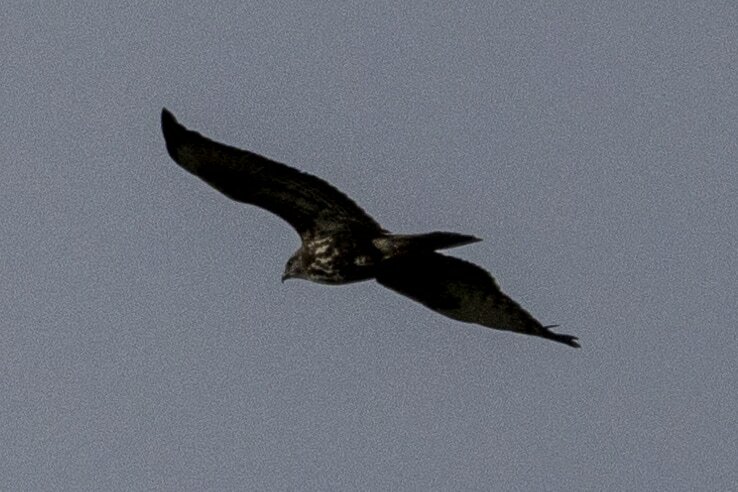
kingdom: Animalia
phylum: Chordata
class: Aves
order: Accipitriformes
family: Accipitridae
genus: Buteo
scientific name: Buteo buteo
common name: Common buzzard
